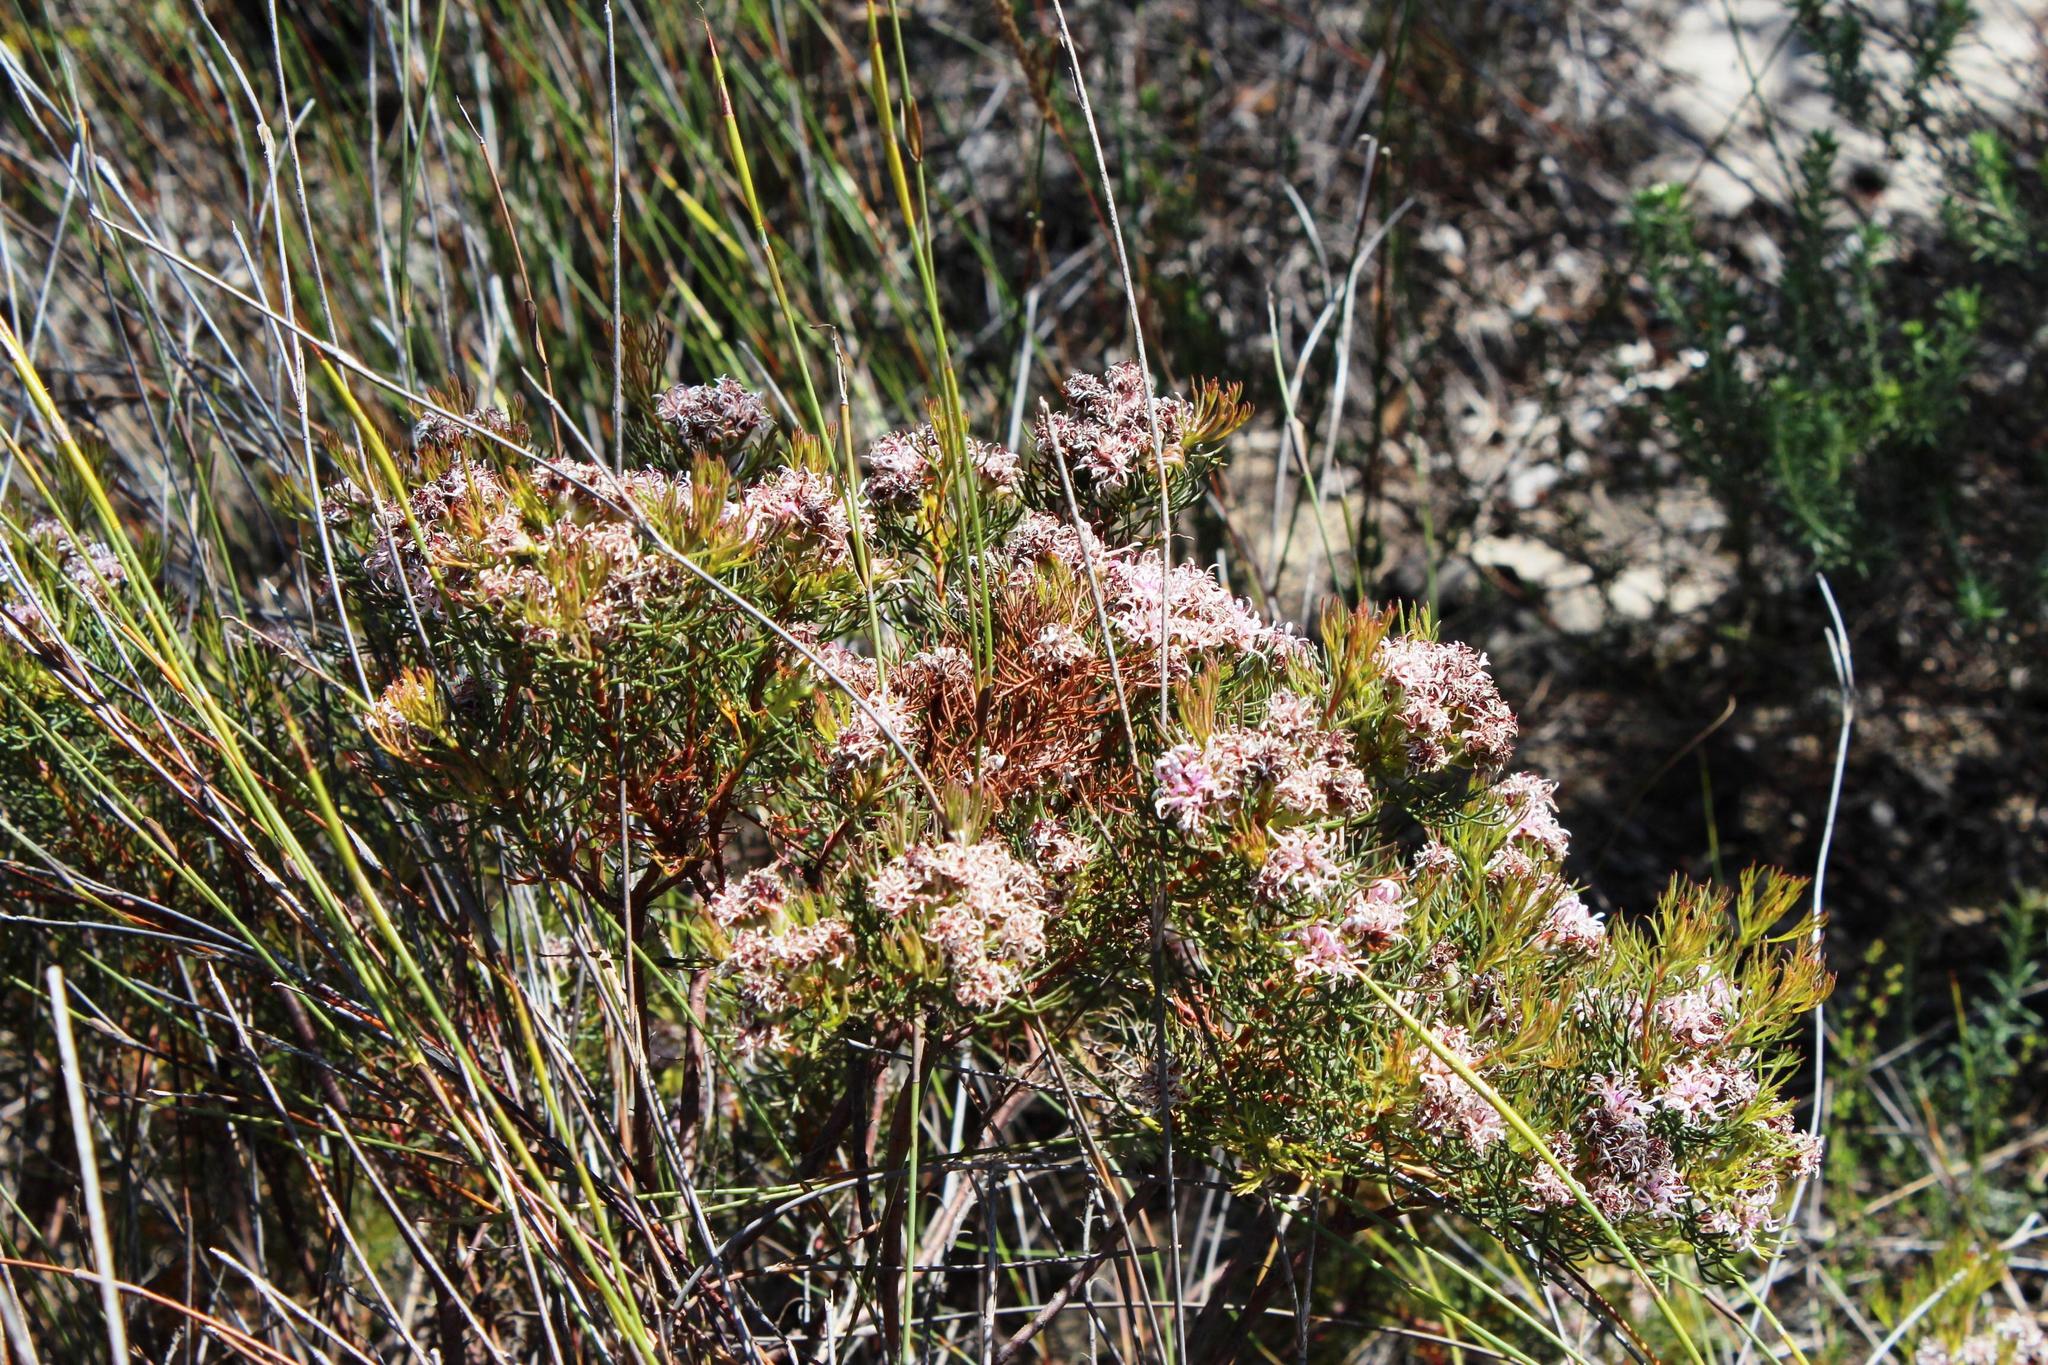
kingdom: Plantae
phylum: Tracheophyta
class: Magnoliopsida
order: Proteales
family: Proteaceae
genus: Serruria
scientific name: Serruria decipiens
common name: Sandveld spiderhead
